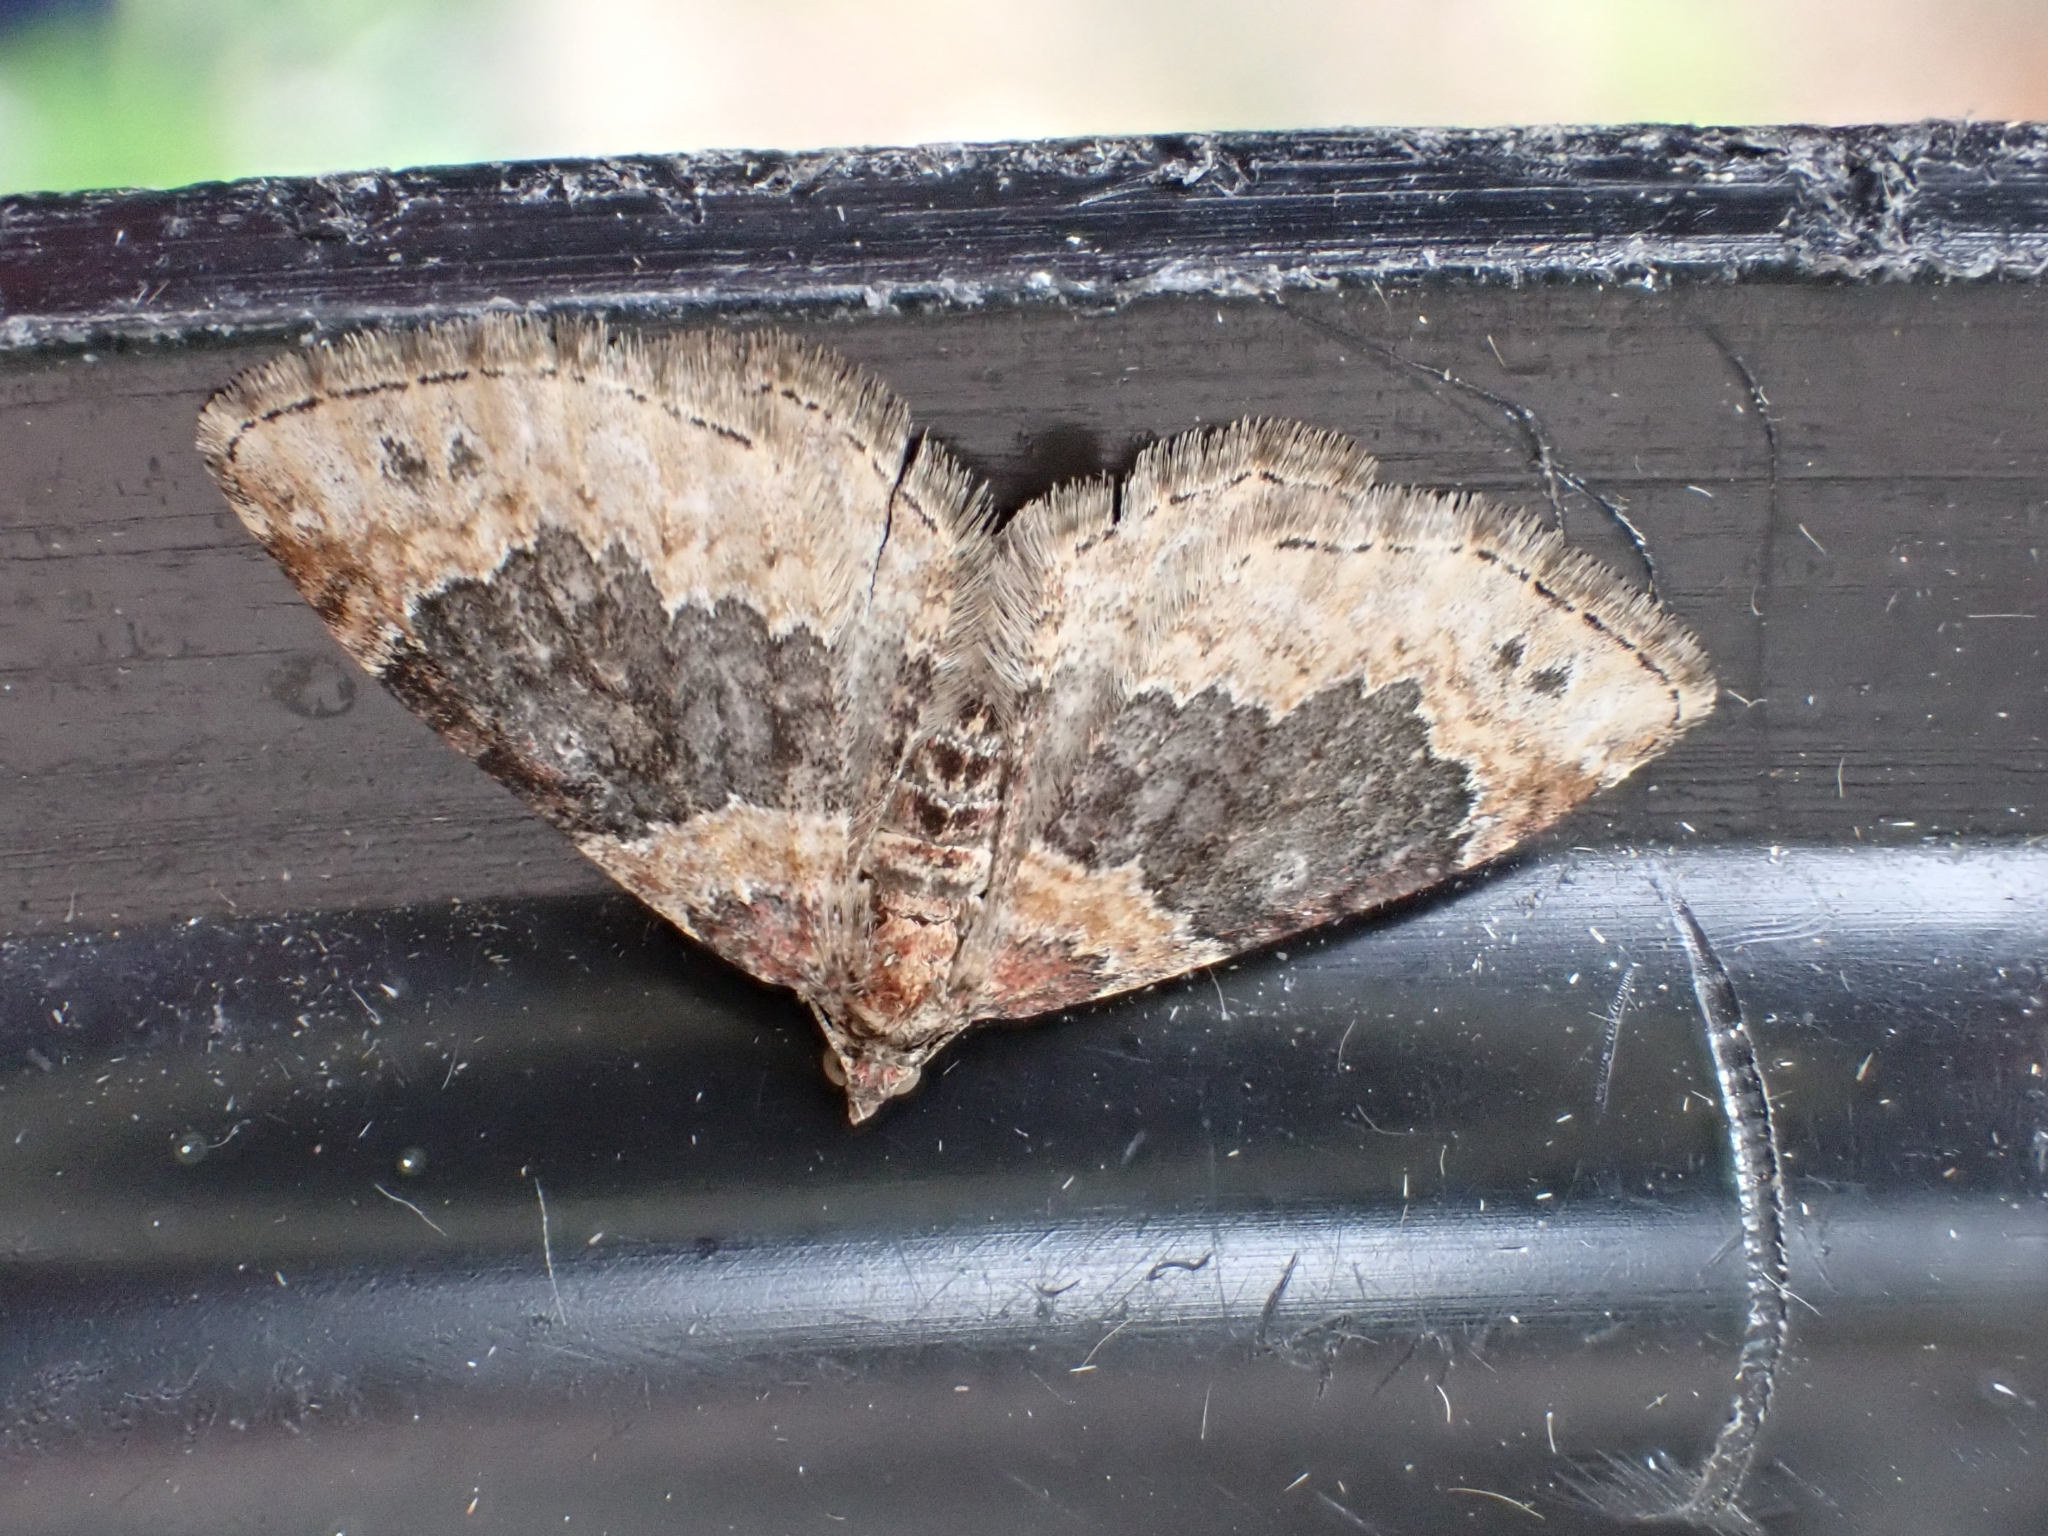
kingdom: Animalia
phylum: Arthropoda
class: Insecta
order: Lepidoptera
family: Geometridae
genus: Xanthorhoe
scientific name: Xanthorhoe ferrugata
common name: Dark-barred twin-spot carpet
